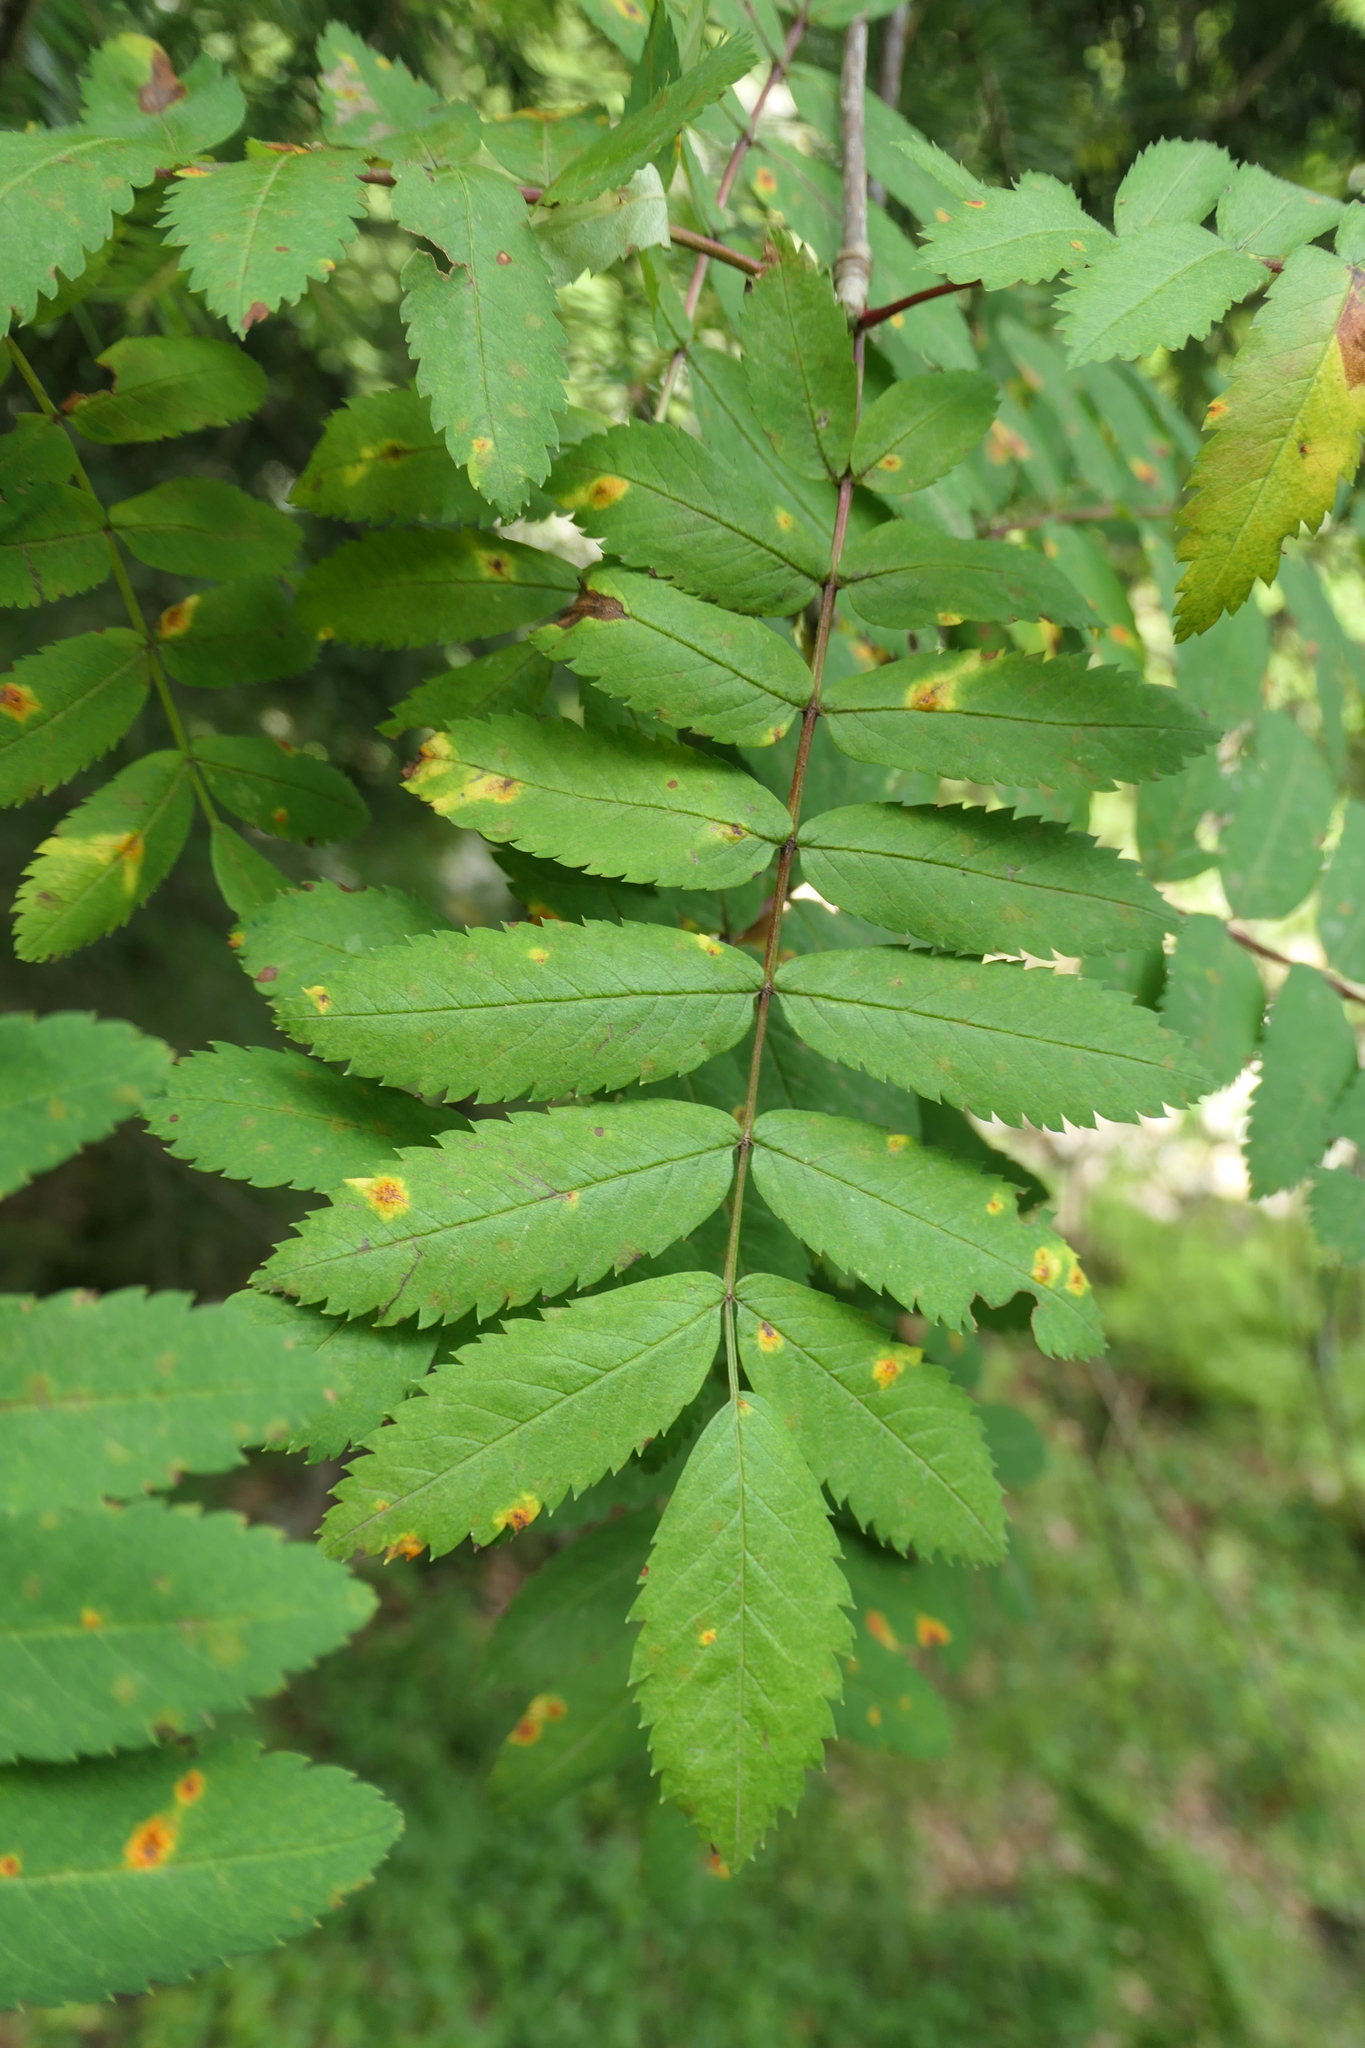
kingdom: Plantae
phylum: Tracheophyta
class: Magnoliopsida
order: Rosales
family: Rosaceae
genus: Sorbus
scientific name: Sorbus aucuparia
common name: Rowan
